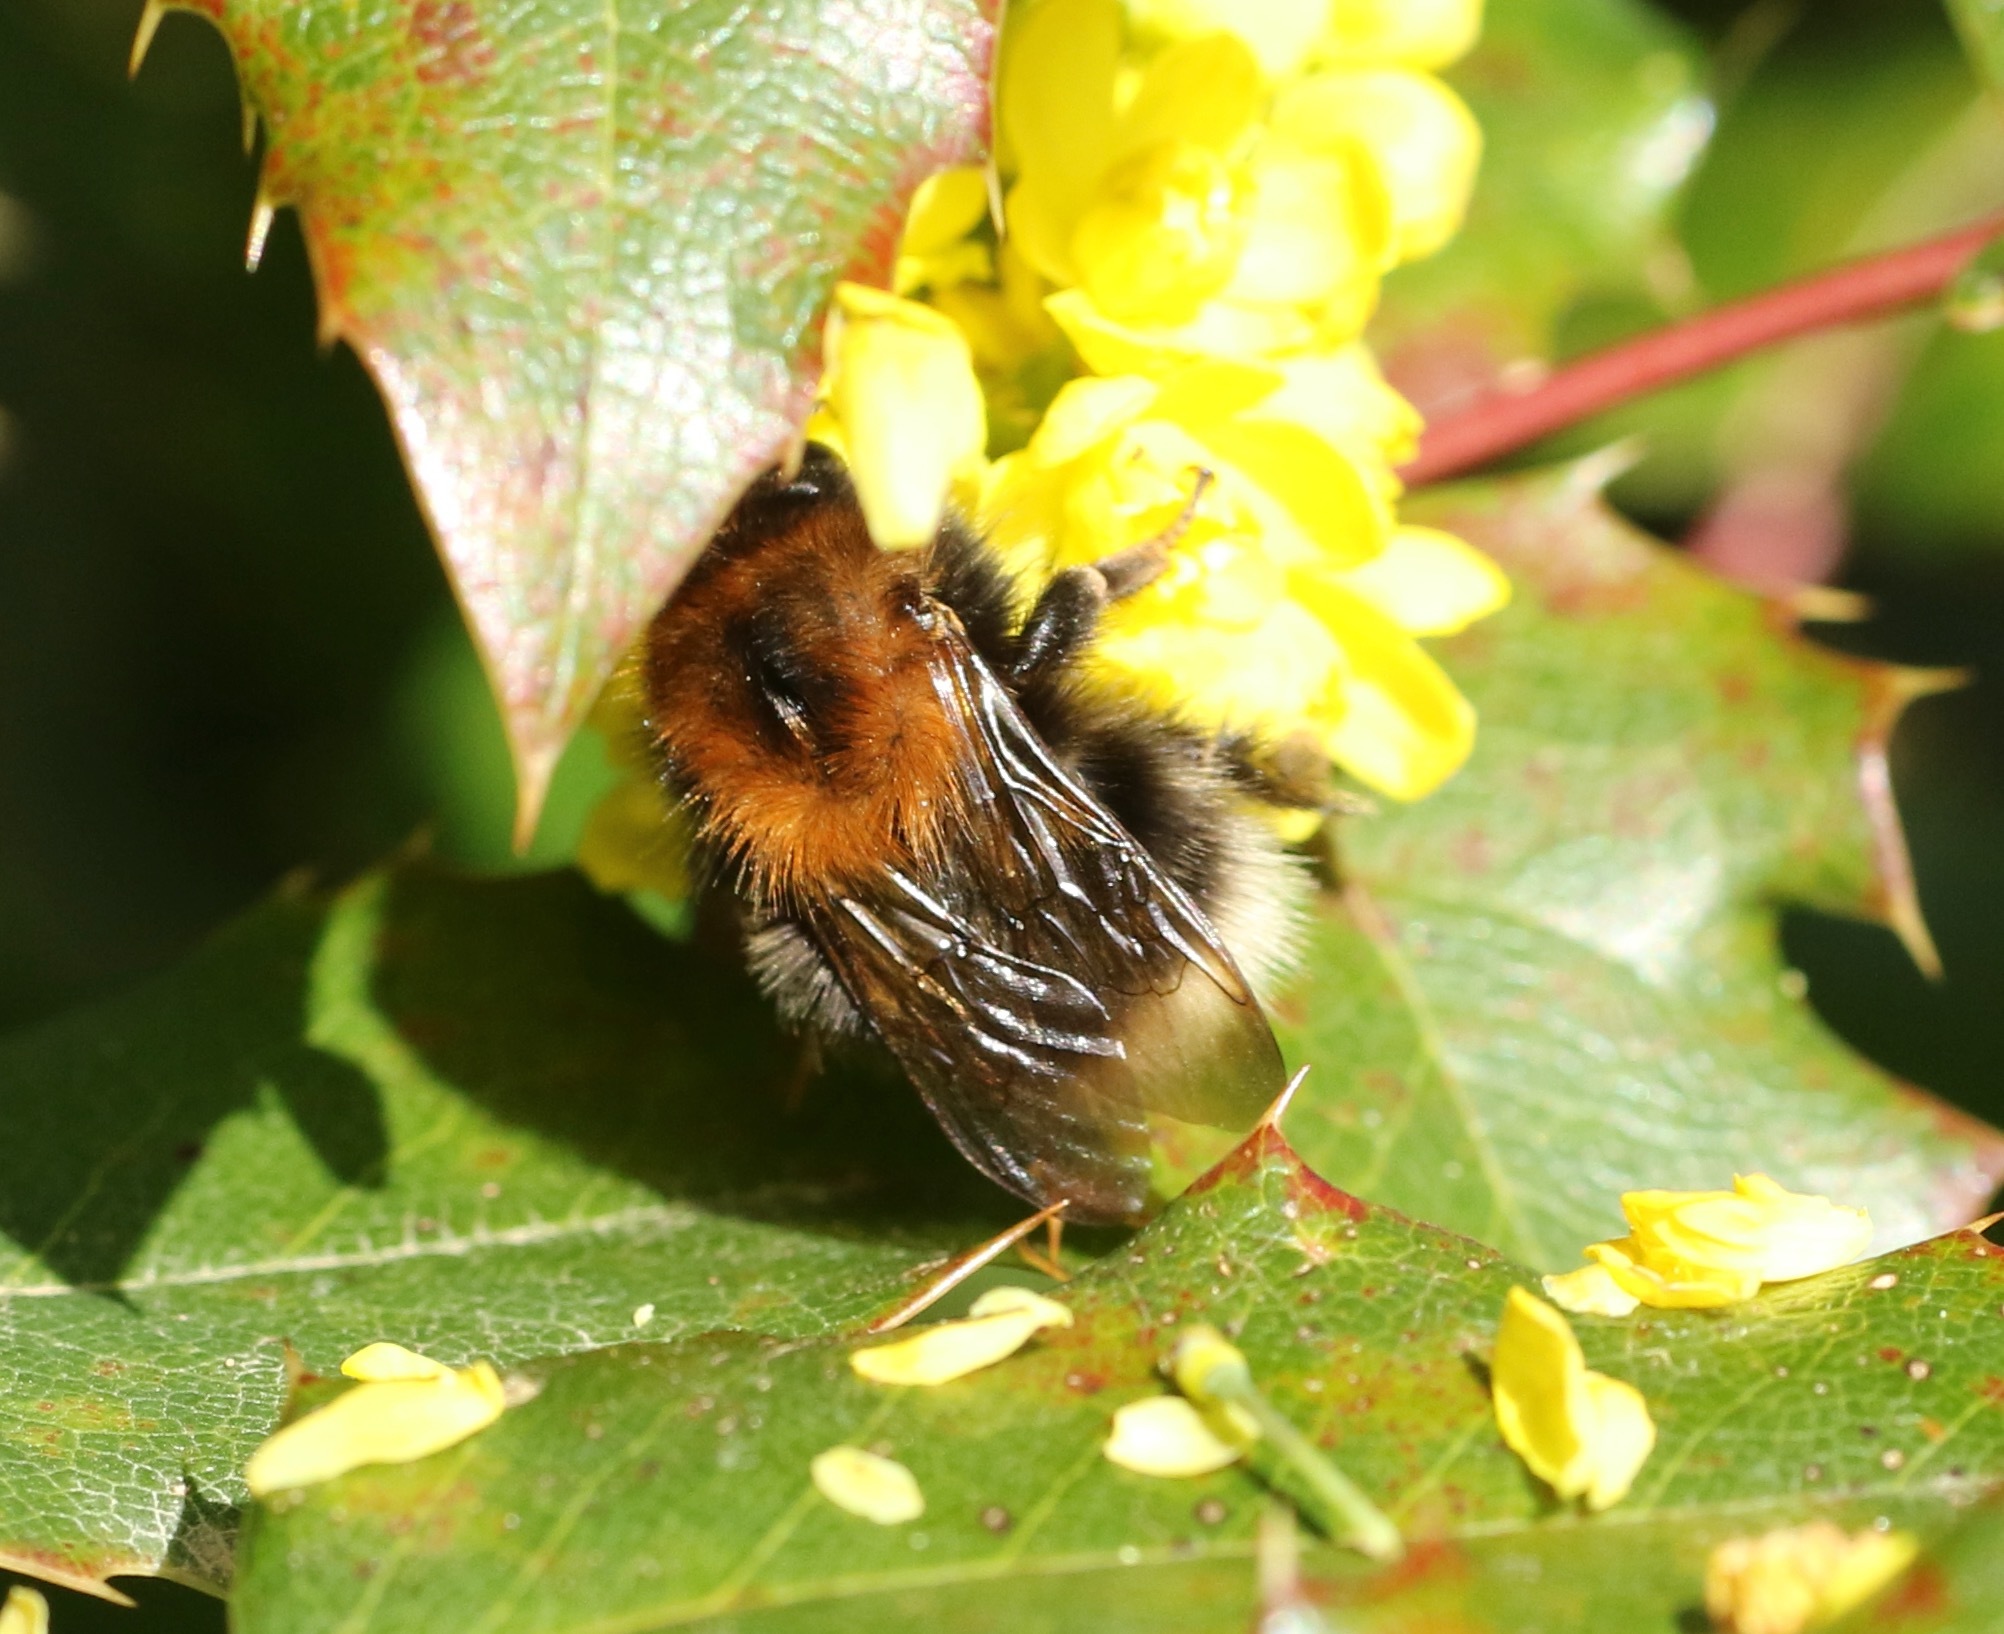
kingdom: Animalia
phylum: Arthropoda
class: Insecta
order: Hymenoptera
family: Apidae
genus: Bombus
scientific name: Bombus hypnorum
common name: New garden bumblebee
